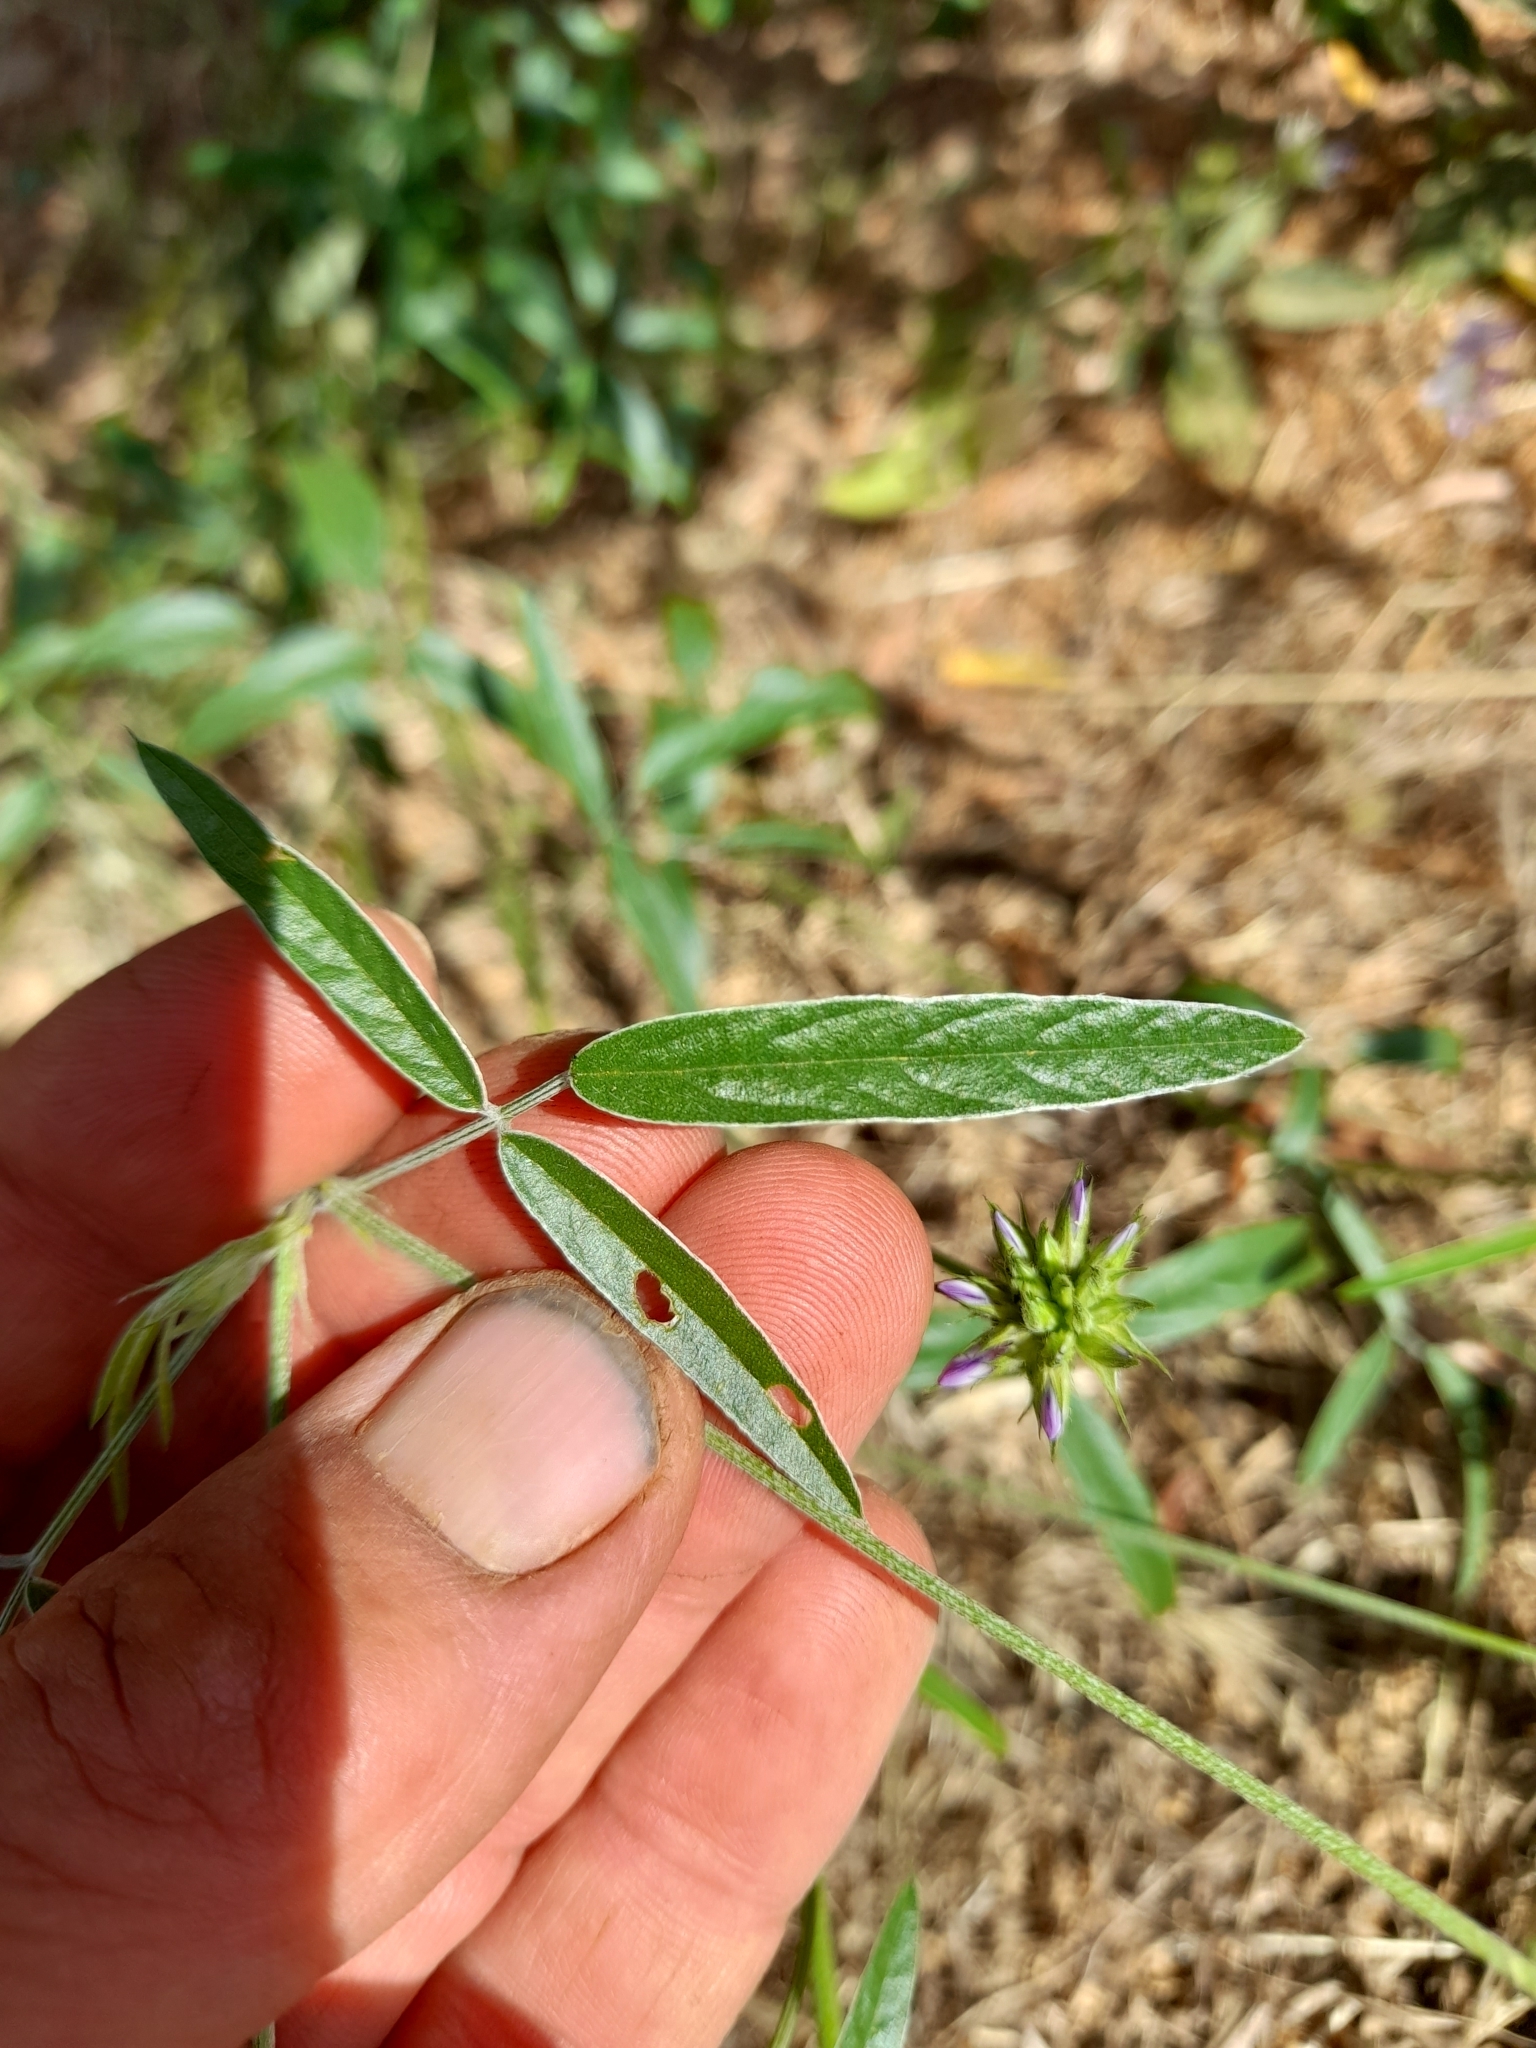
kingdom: Plantae
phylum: Tracheophyta
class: Magnoliopsida
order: Fabales
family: Fabaceae
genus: Bituminaria
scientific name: Bituminaria bituminosa
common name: Arabian pea
